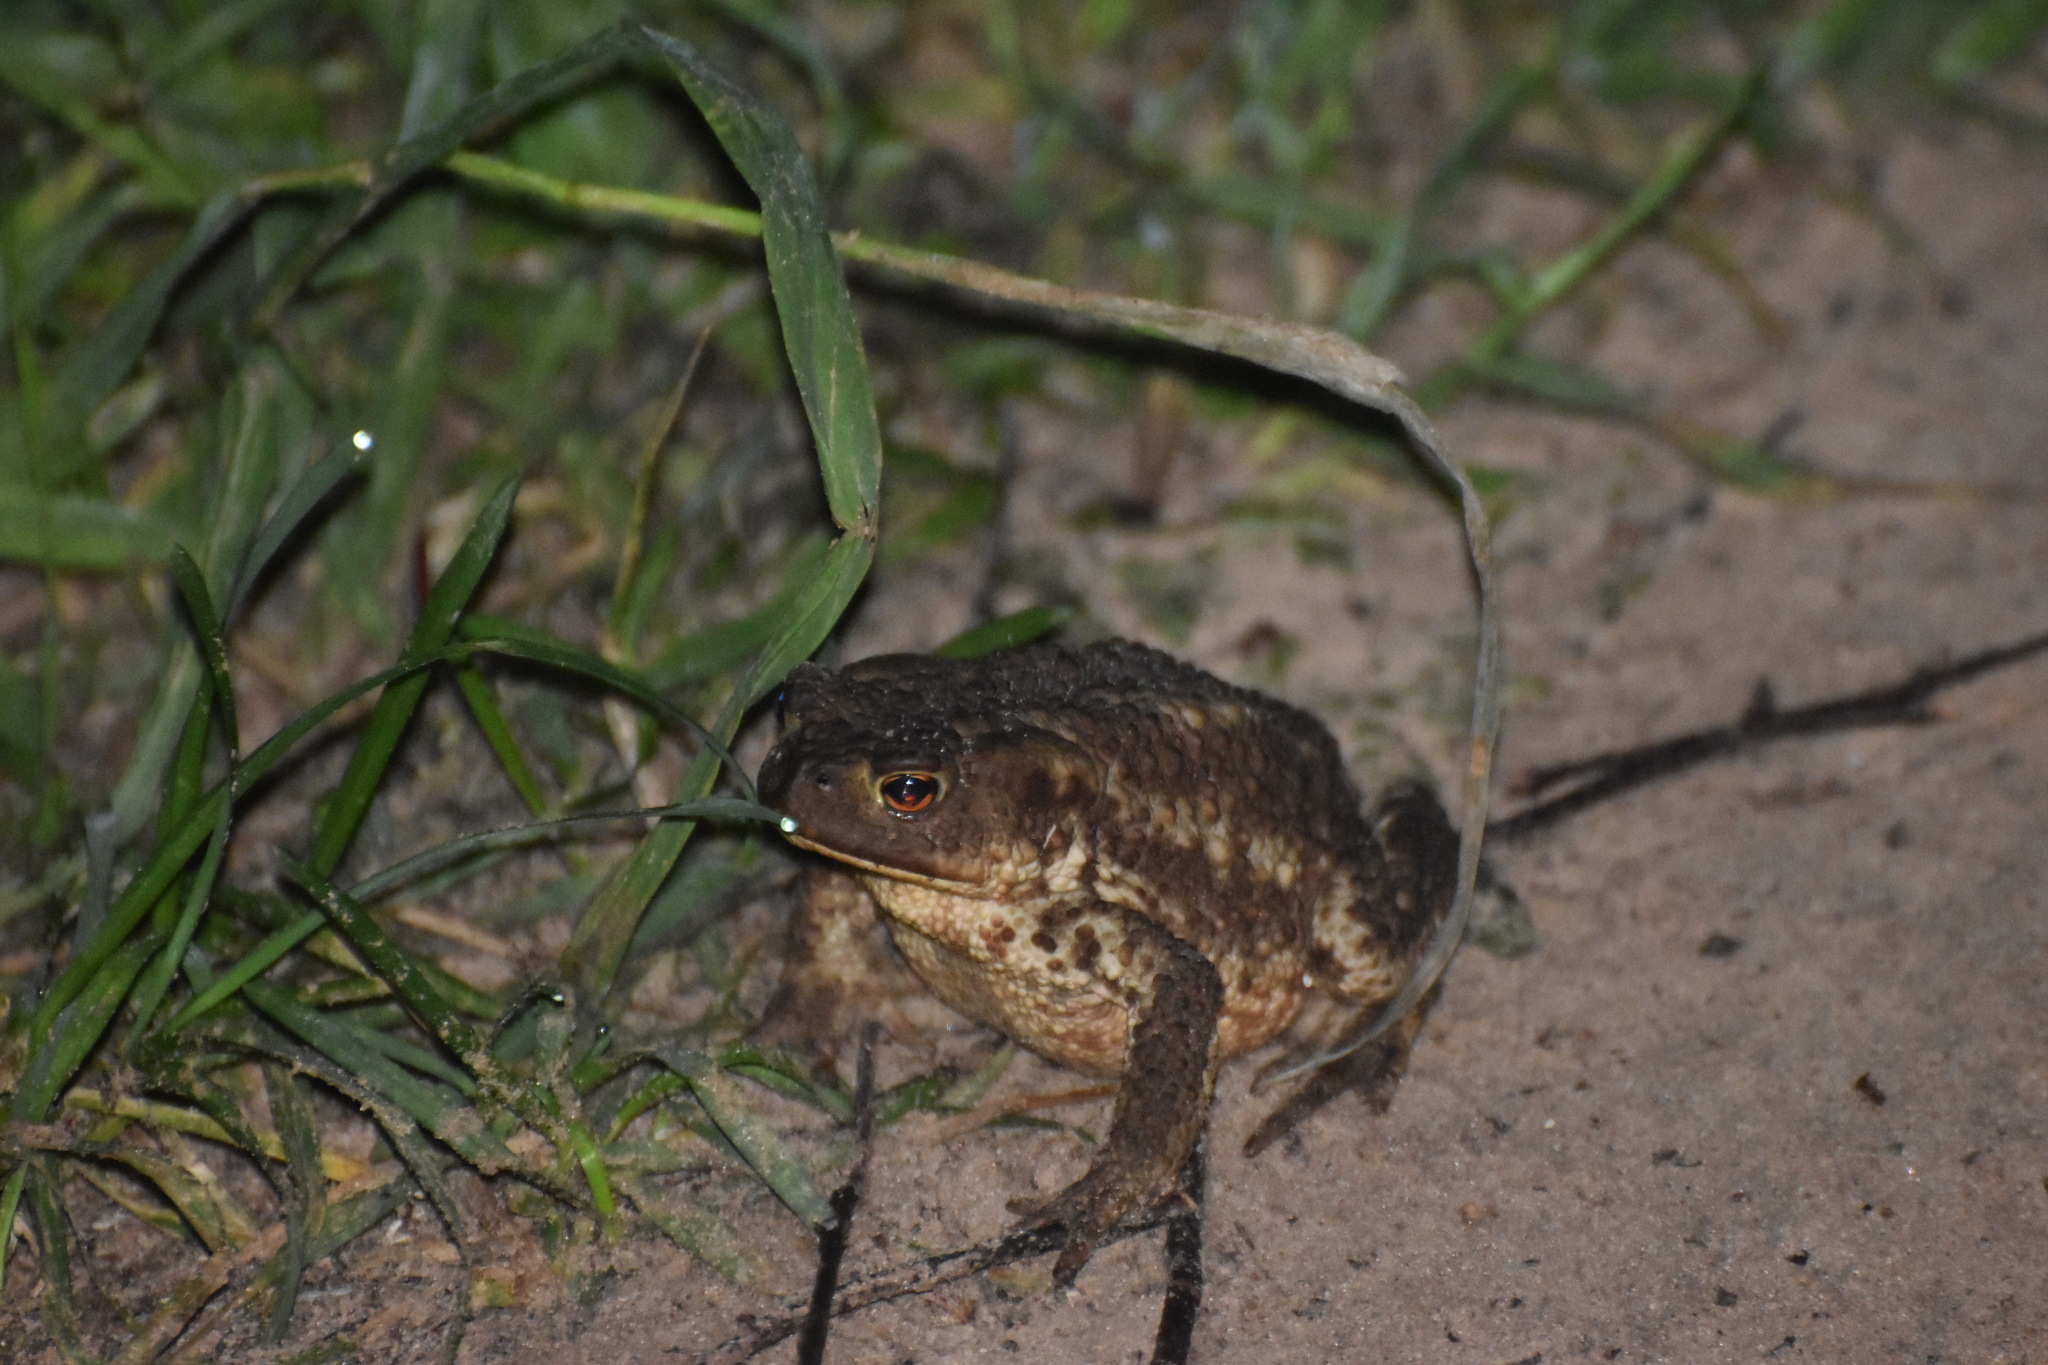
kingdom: Animalia
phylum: Chordata
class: Amphibia
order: Anura
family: Bufonidae
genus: Bufo
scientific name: Bufo bufo
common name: Common toad
